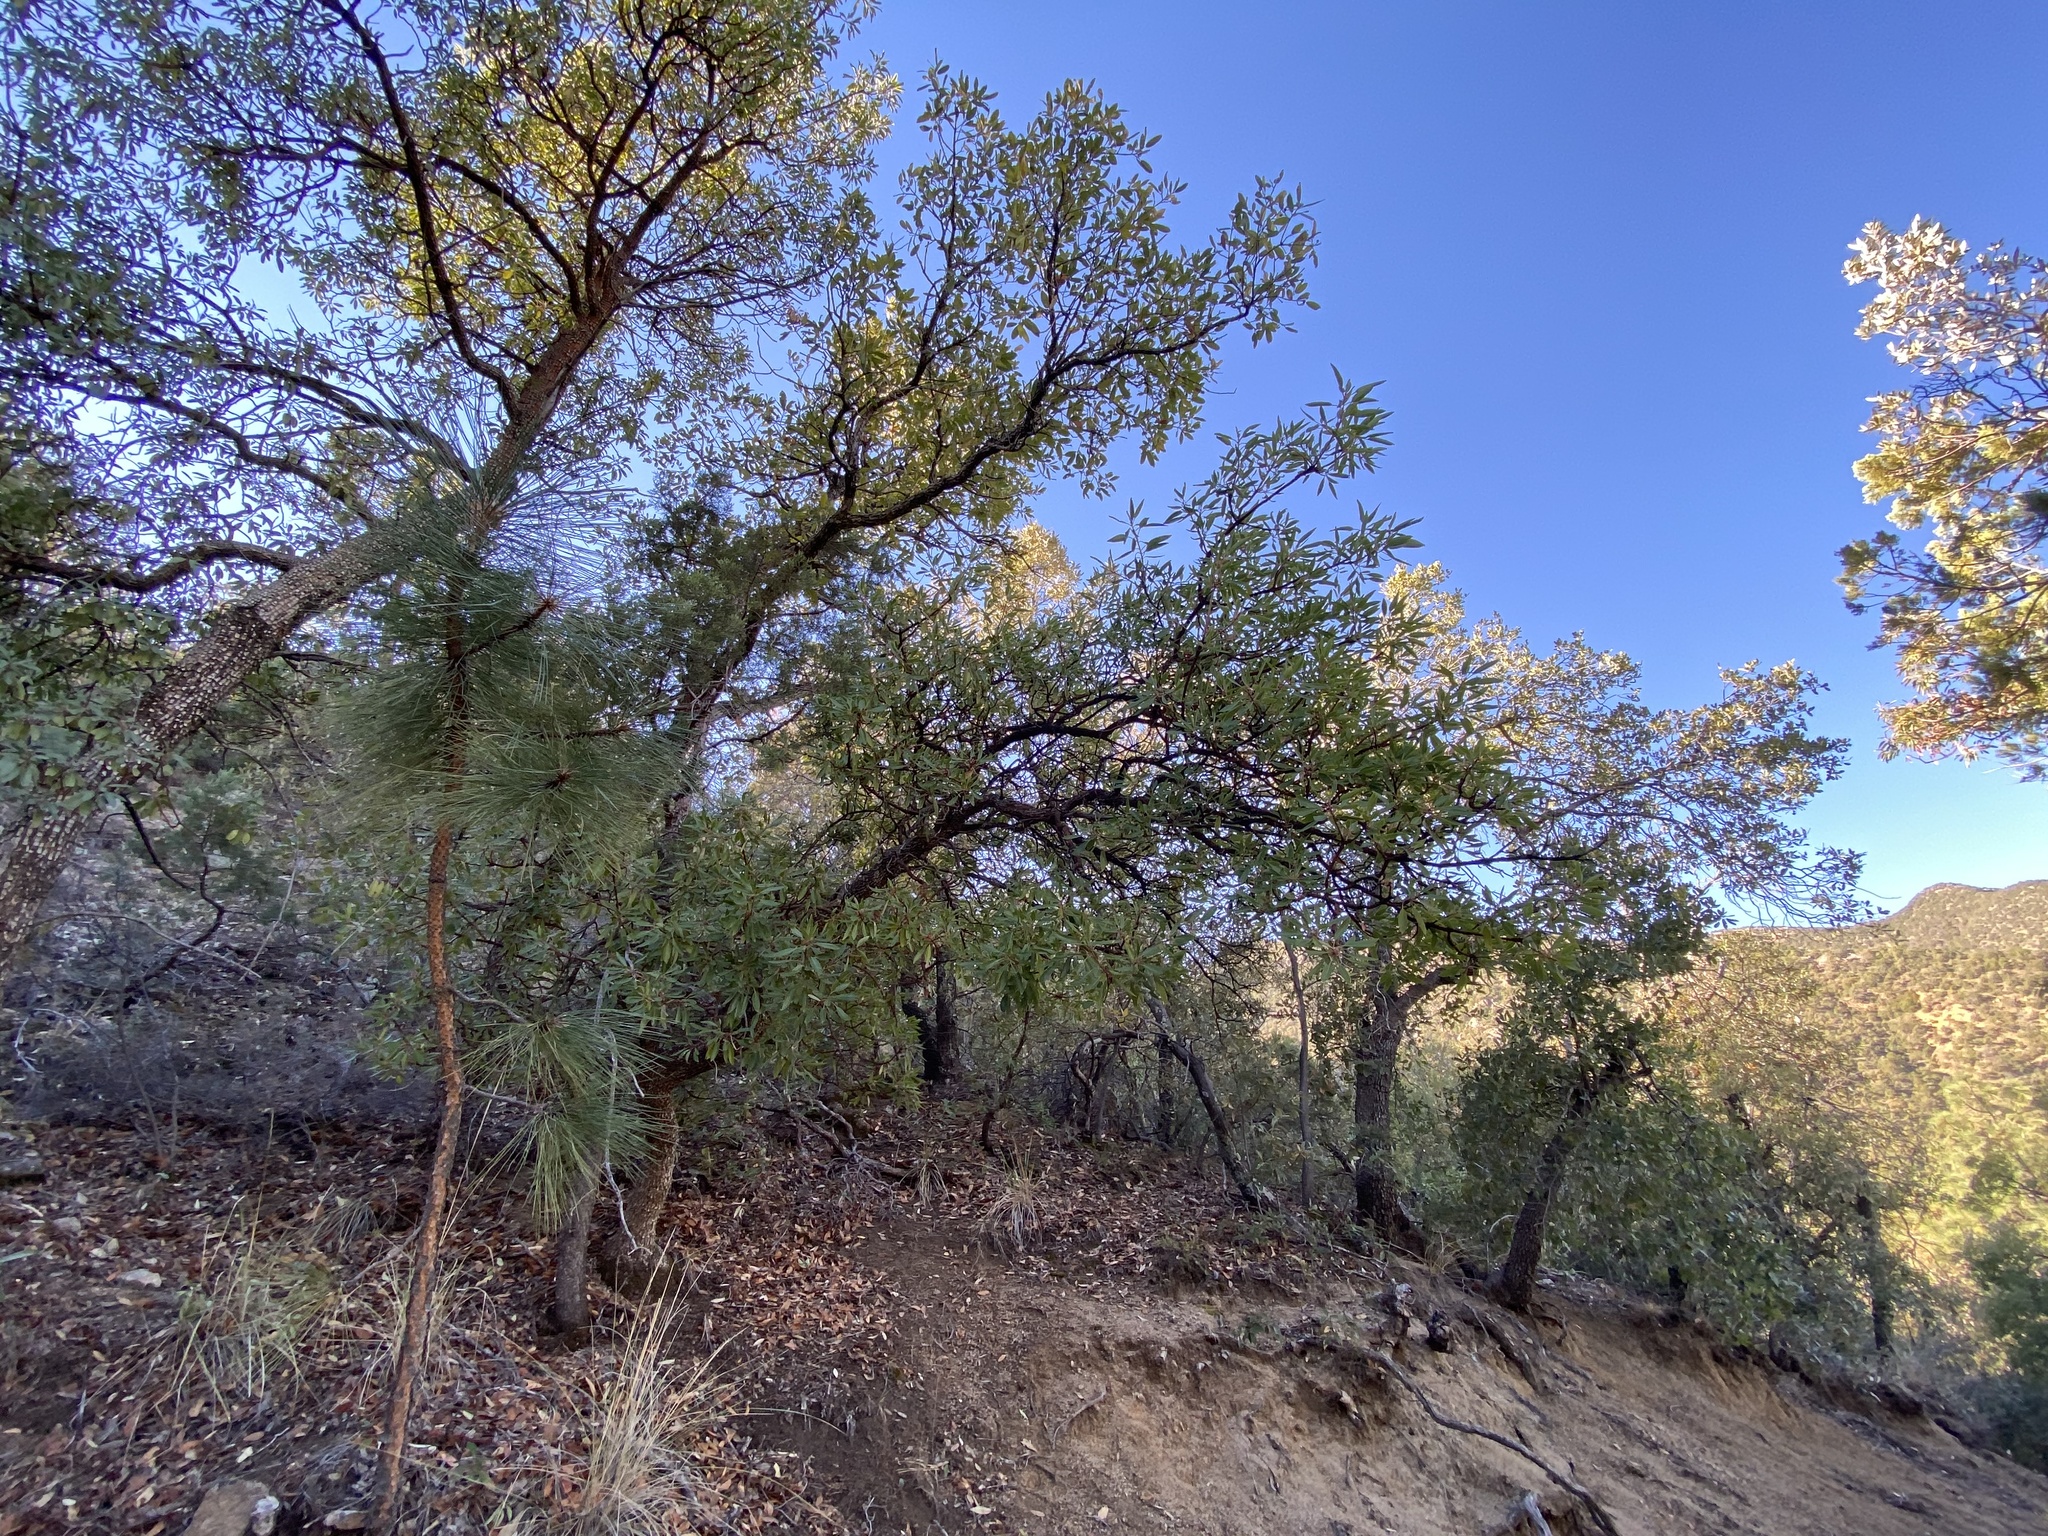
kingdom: Plantae
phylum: Tracheophyta
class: Magnoliopsida
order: Ericales
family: Ericaceae
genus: Arbutus
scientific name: Arbutus arizonica
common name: Arizona madrone
